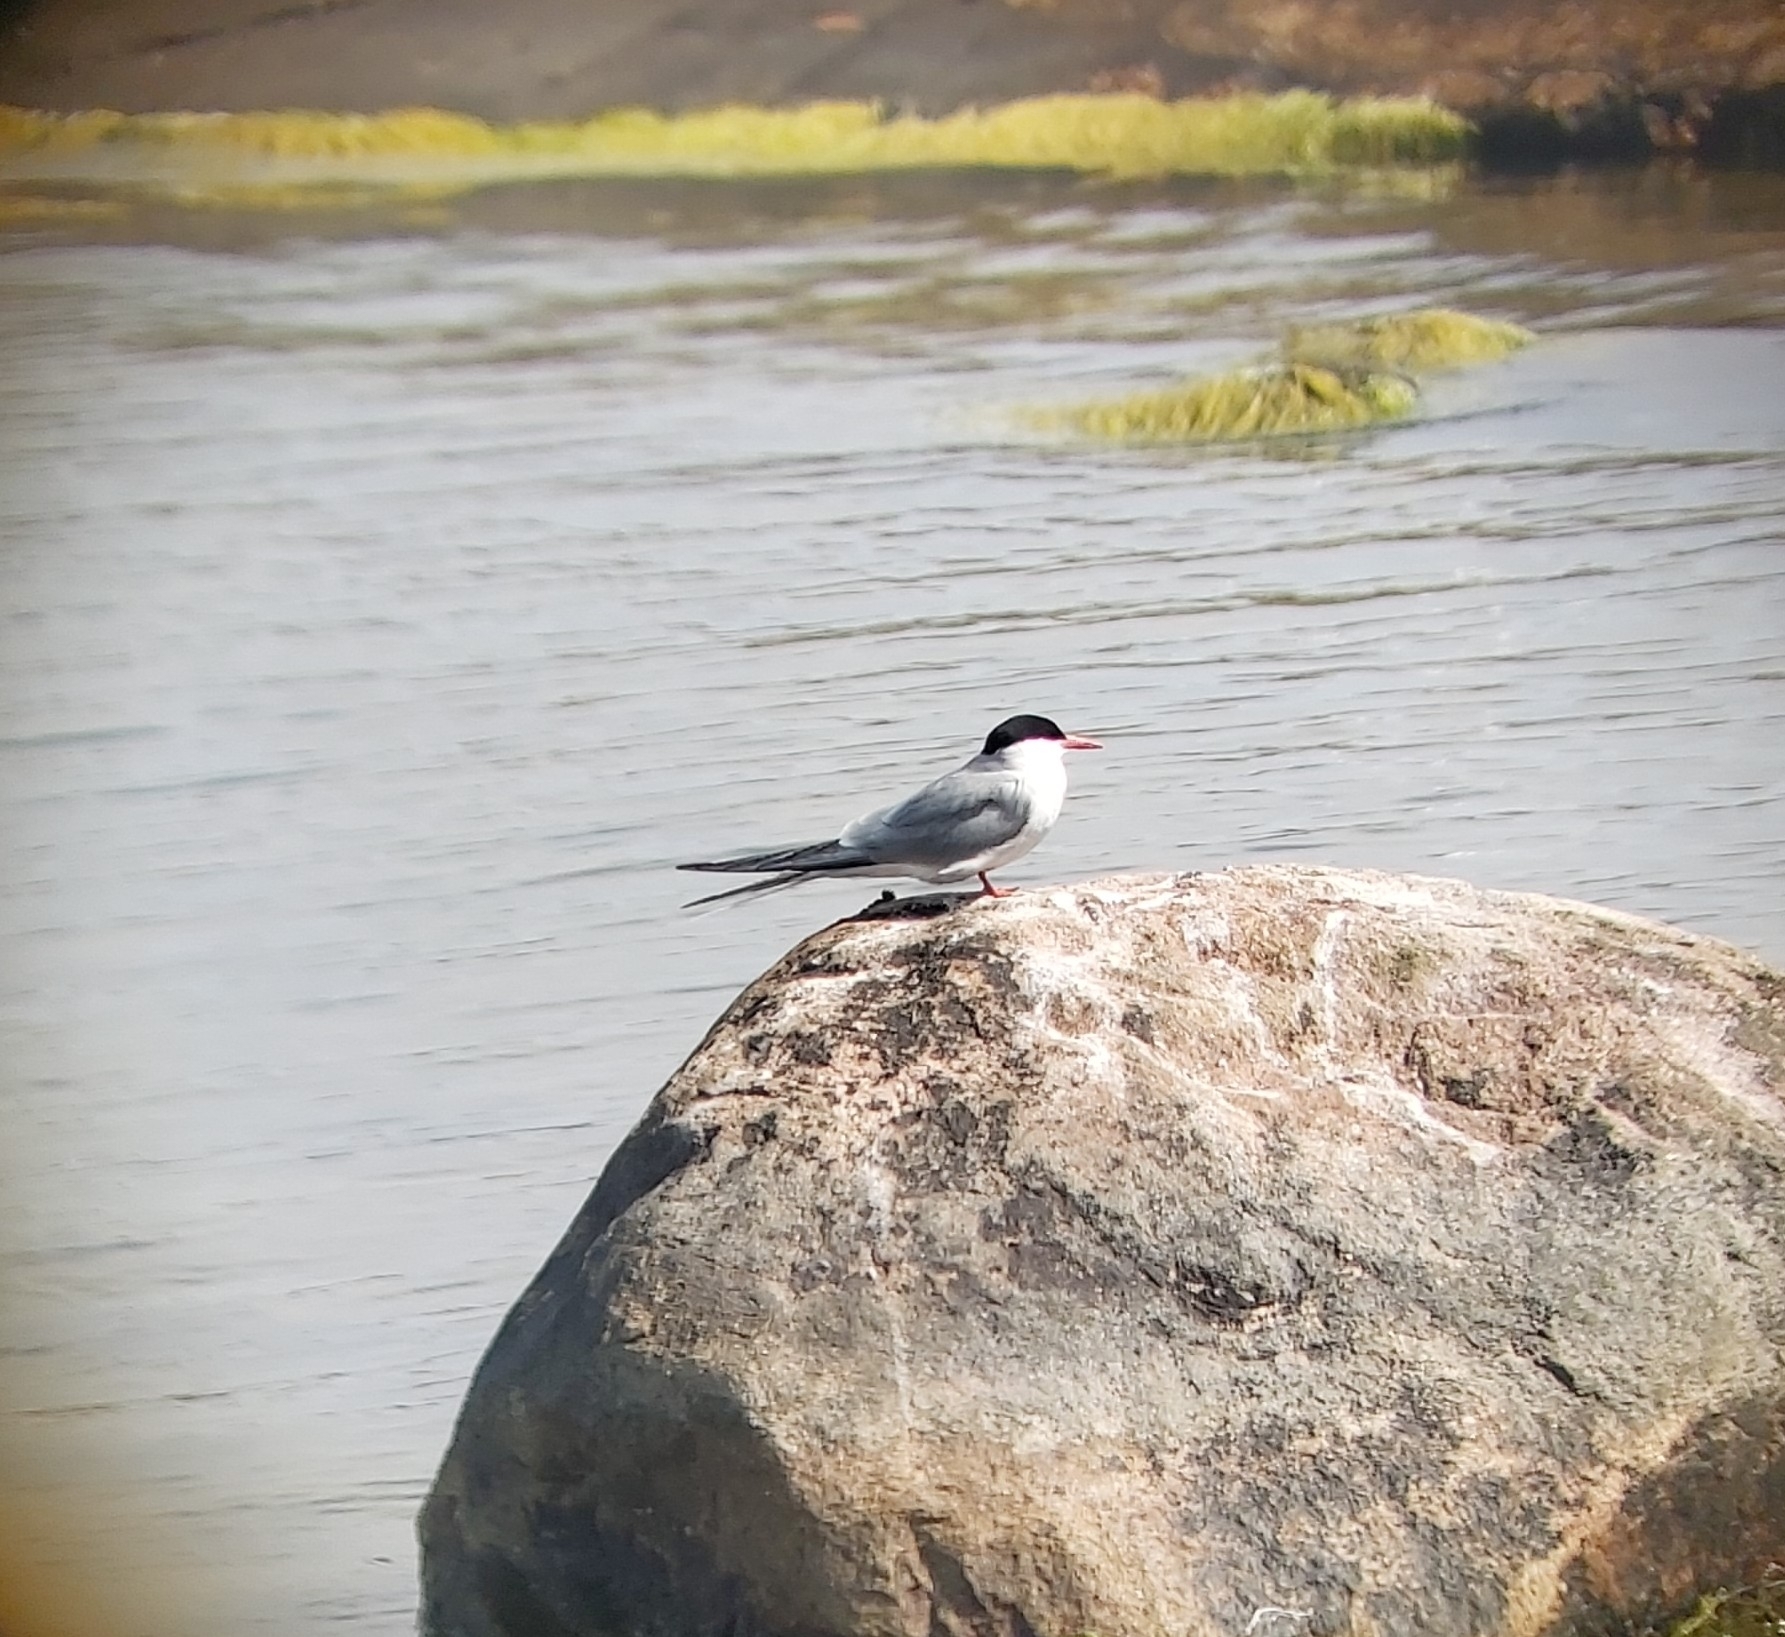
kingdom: Animalia
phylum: Chordata
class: Aves
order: Charadriiformes
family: Laridae
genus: Sterna
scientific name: Sterna paradisaea
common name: Arctic tern
